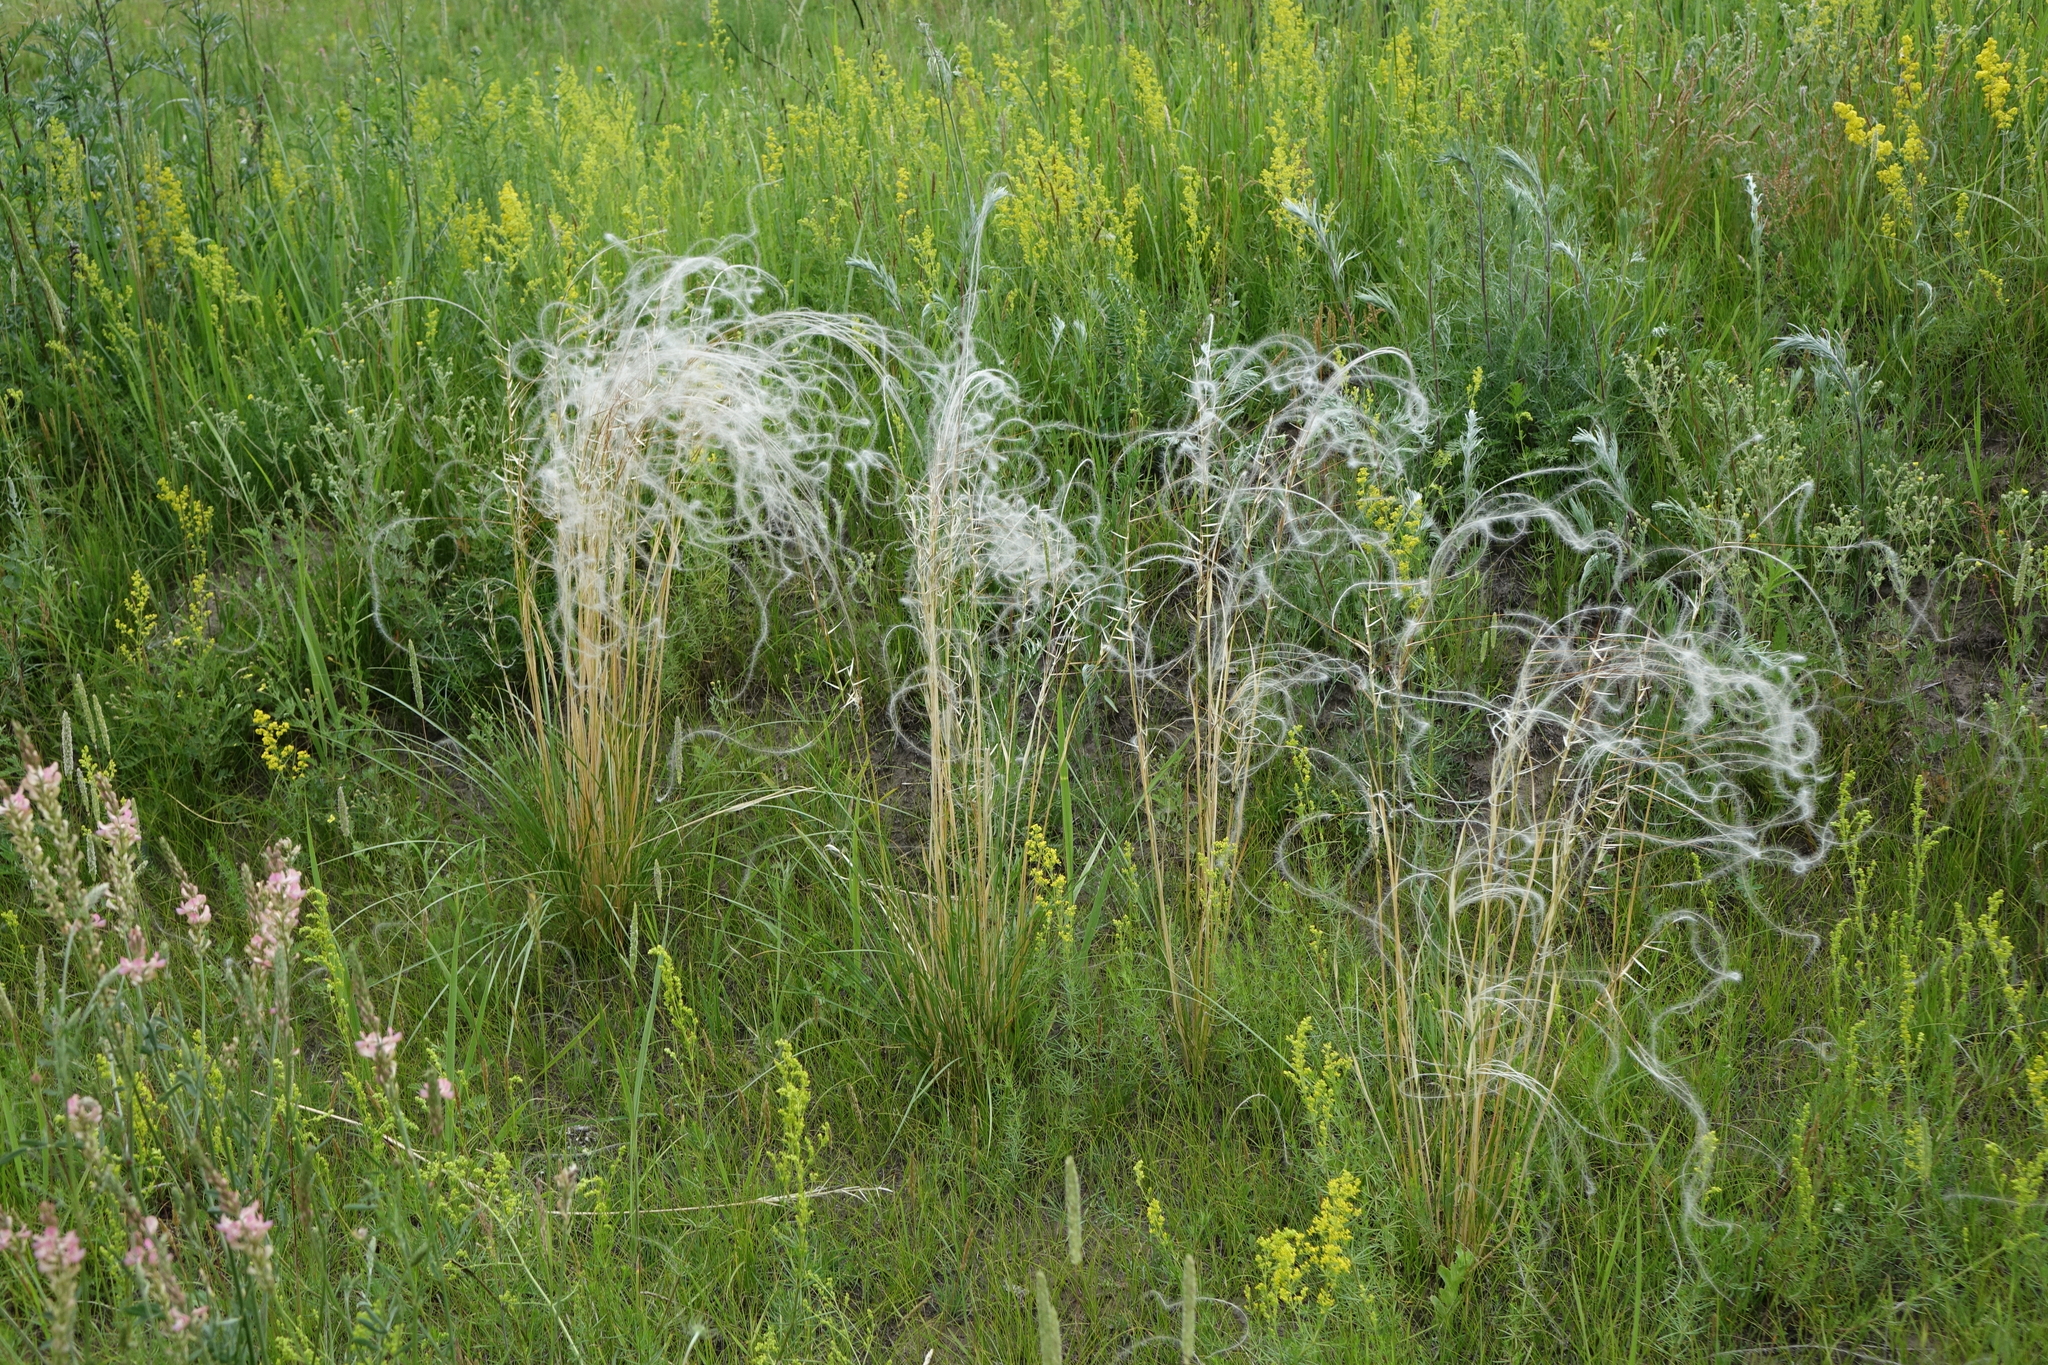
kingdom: Plantae
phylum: Tracheophyta
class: Liliopsida
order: Poales
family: Poaceae
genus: Stipa
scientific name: Stipa pennata
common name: European feather grass
